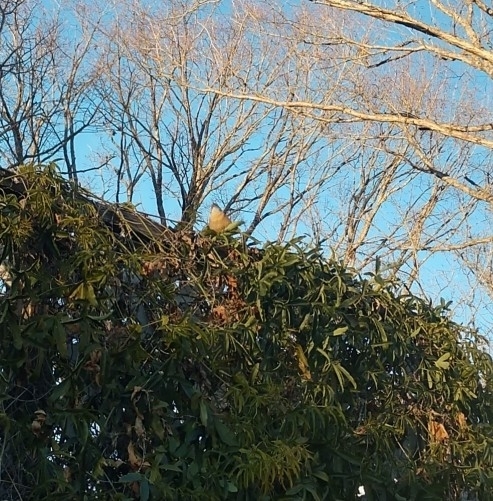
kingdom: Animalia
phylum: Chordata
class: Aves
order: Passeriformes
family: Troglodytidae
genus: Thryothorus
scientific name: Thryothorus ludovicianus
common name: Carolina wren
